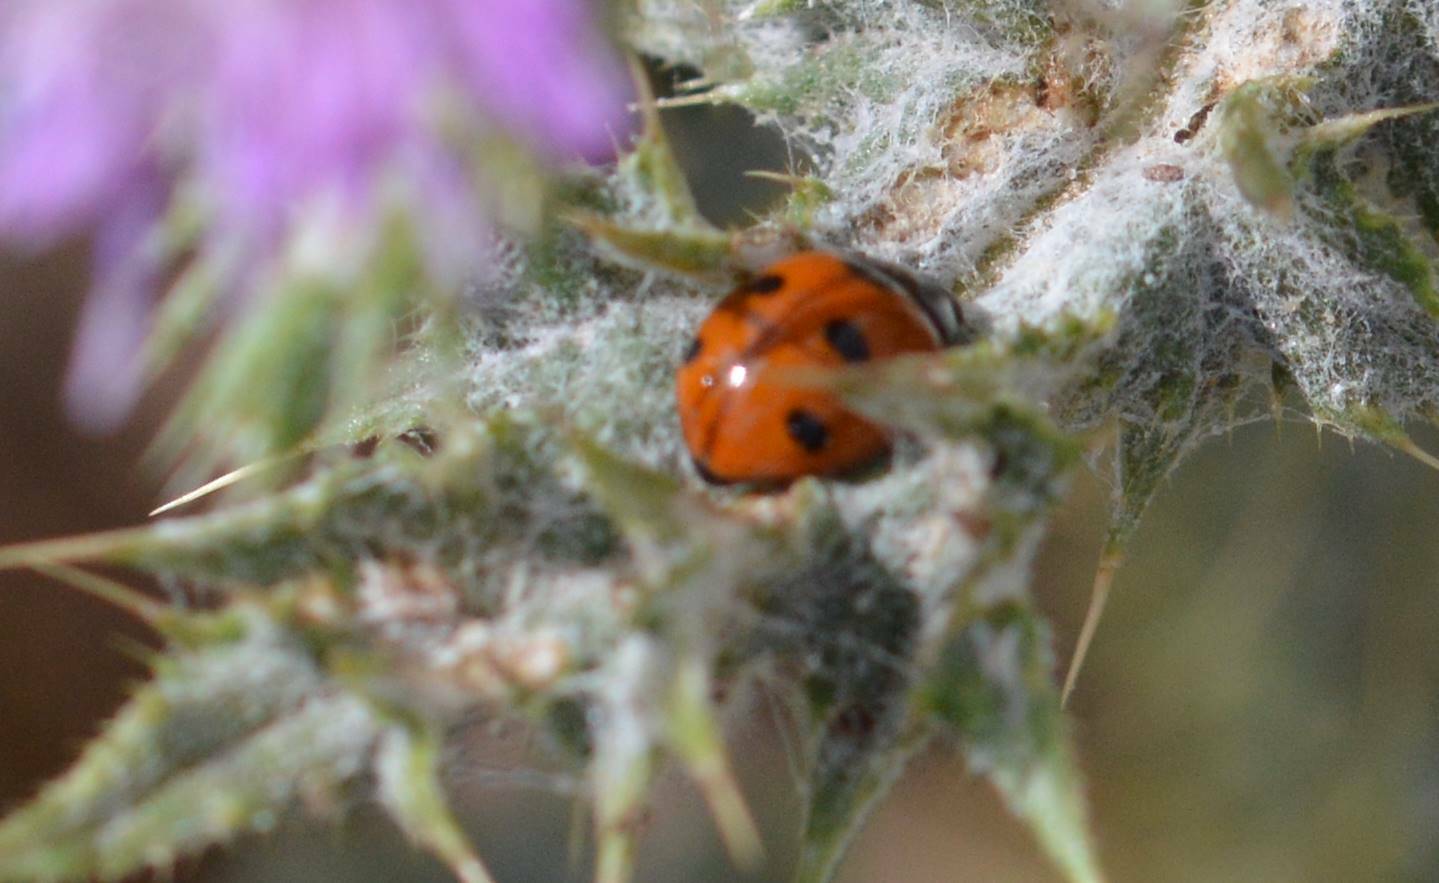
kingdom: Animalia
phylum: Arthropoda
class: Insecta
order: Coleoptera
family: Coccinellidae
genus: Coccinella
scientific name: Coccinella algerica
